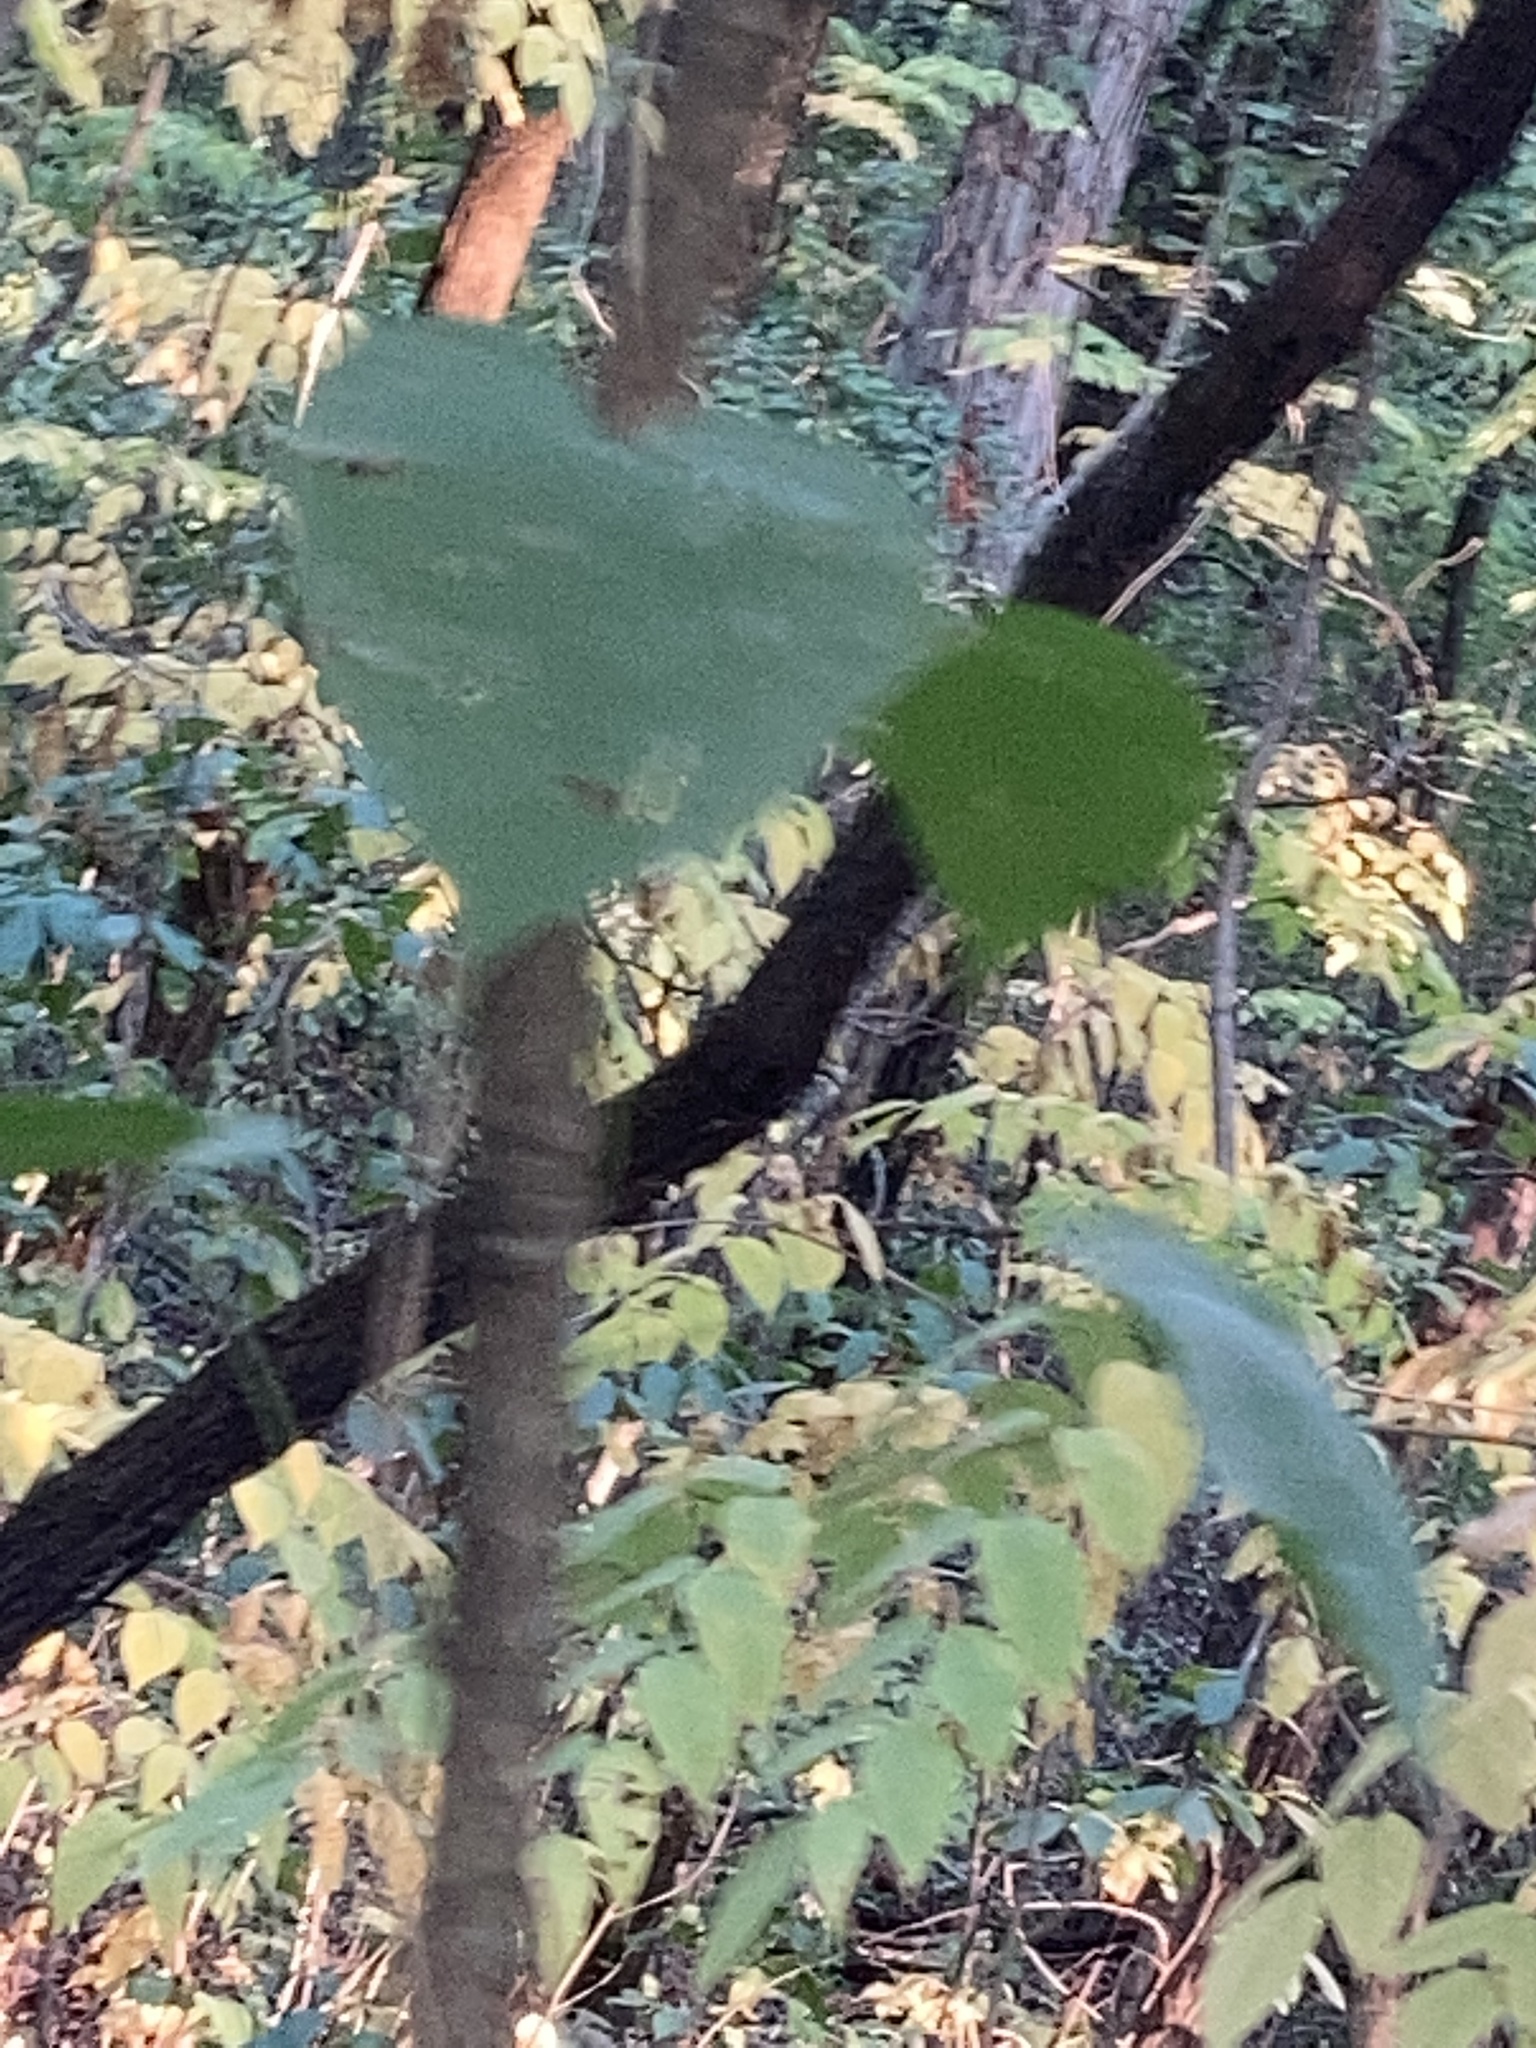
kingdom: Plantae
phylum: Tracheophyta
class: Magnoliopsida
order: Apiales
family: Araliaceae
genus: Aralia
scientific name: Aralia spinosa
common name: Hercules'-club
